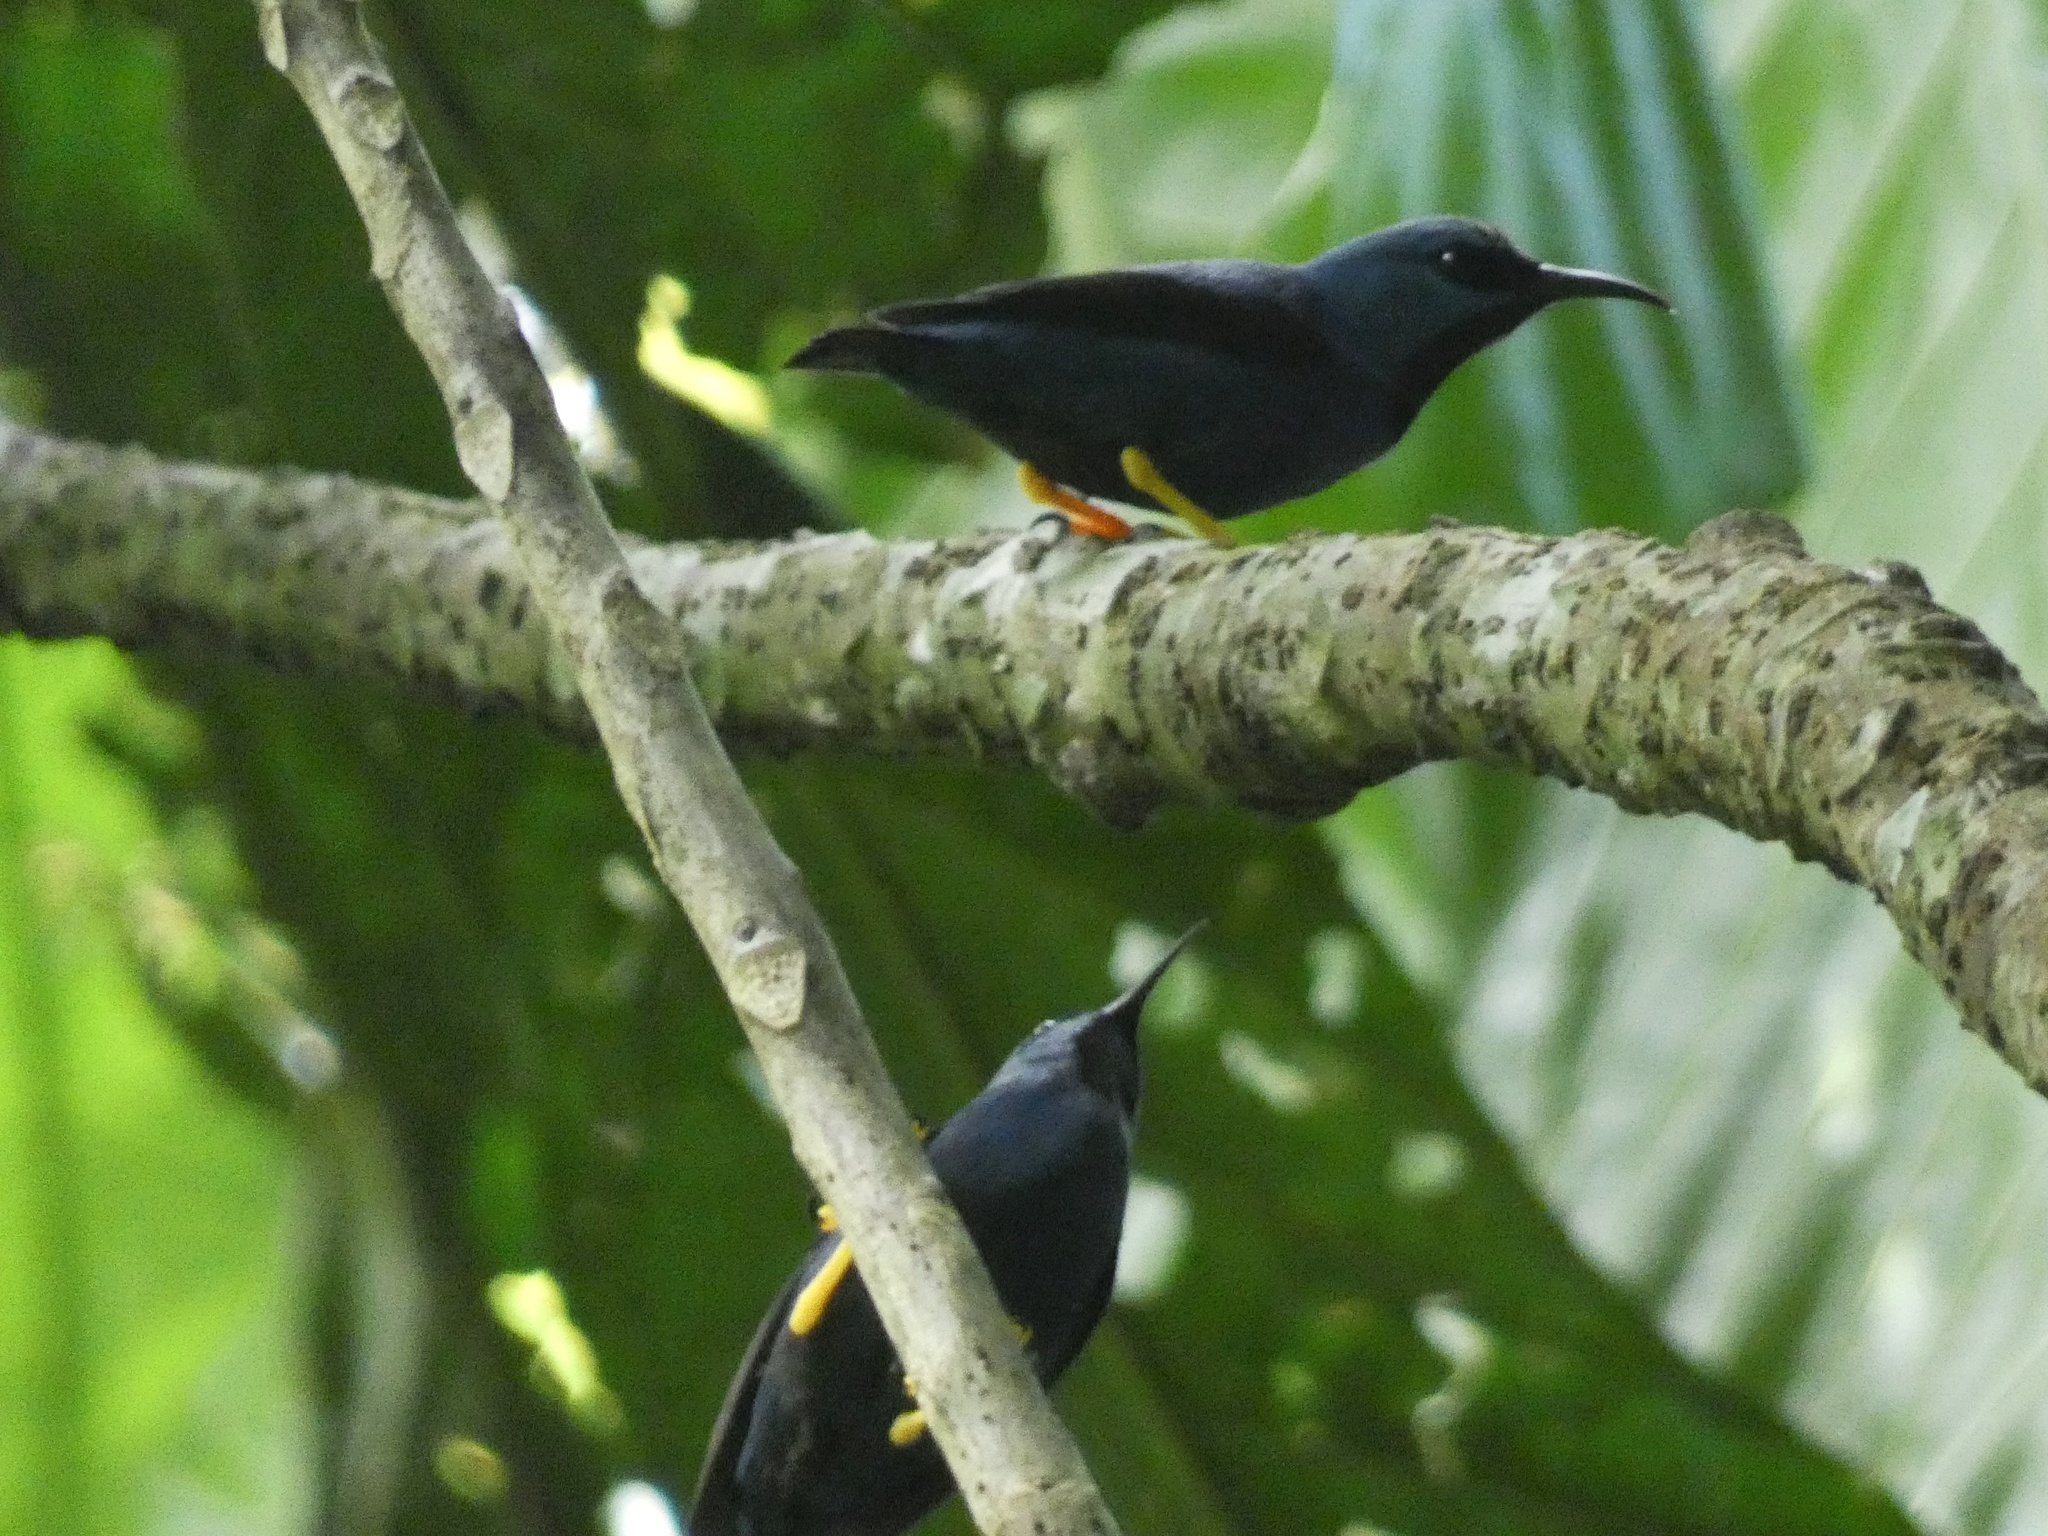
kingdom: Animalia
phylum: Chordata
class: Aves
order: Passeriformes
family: Thraupidae
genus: Cyanerpes
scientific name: Cyanerpes lucidus
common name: Shining honeycreeper
